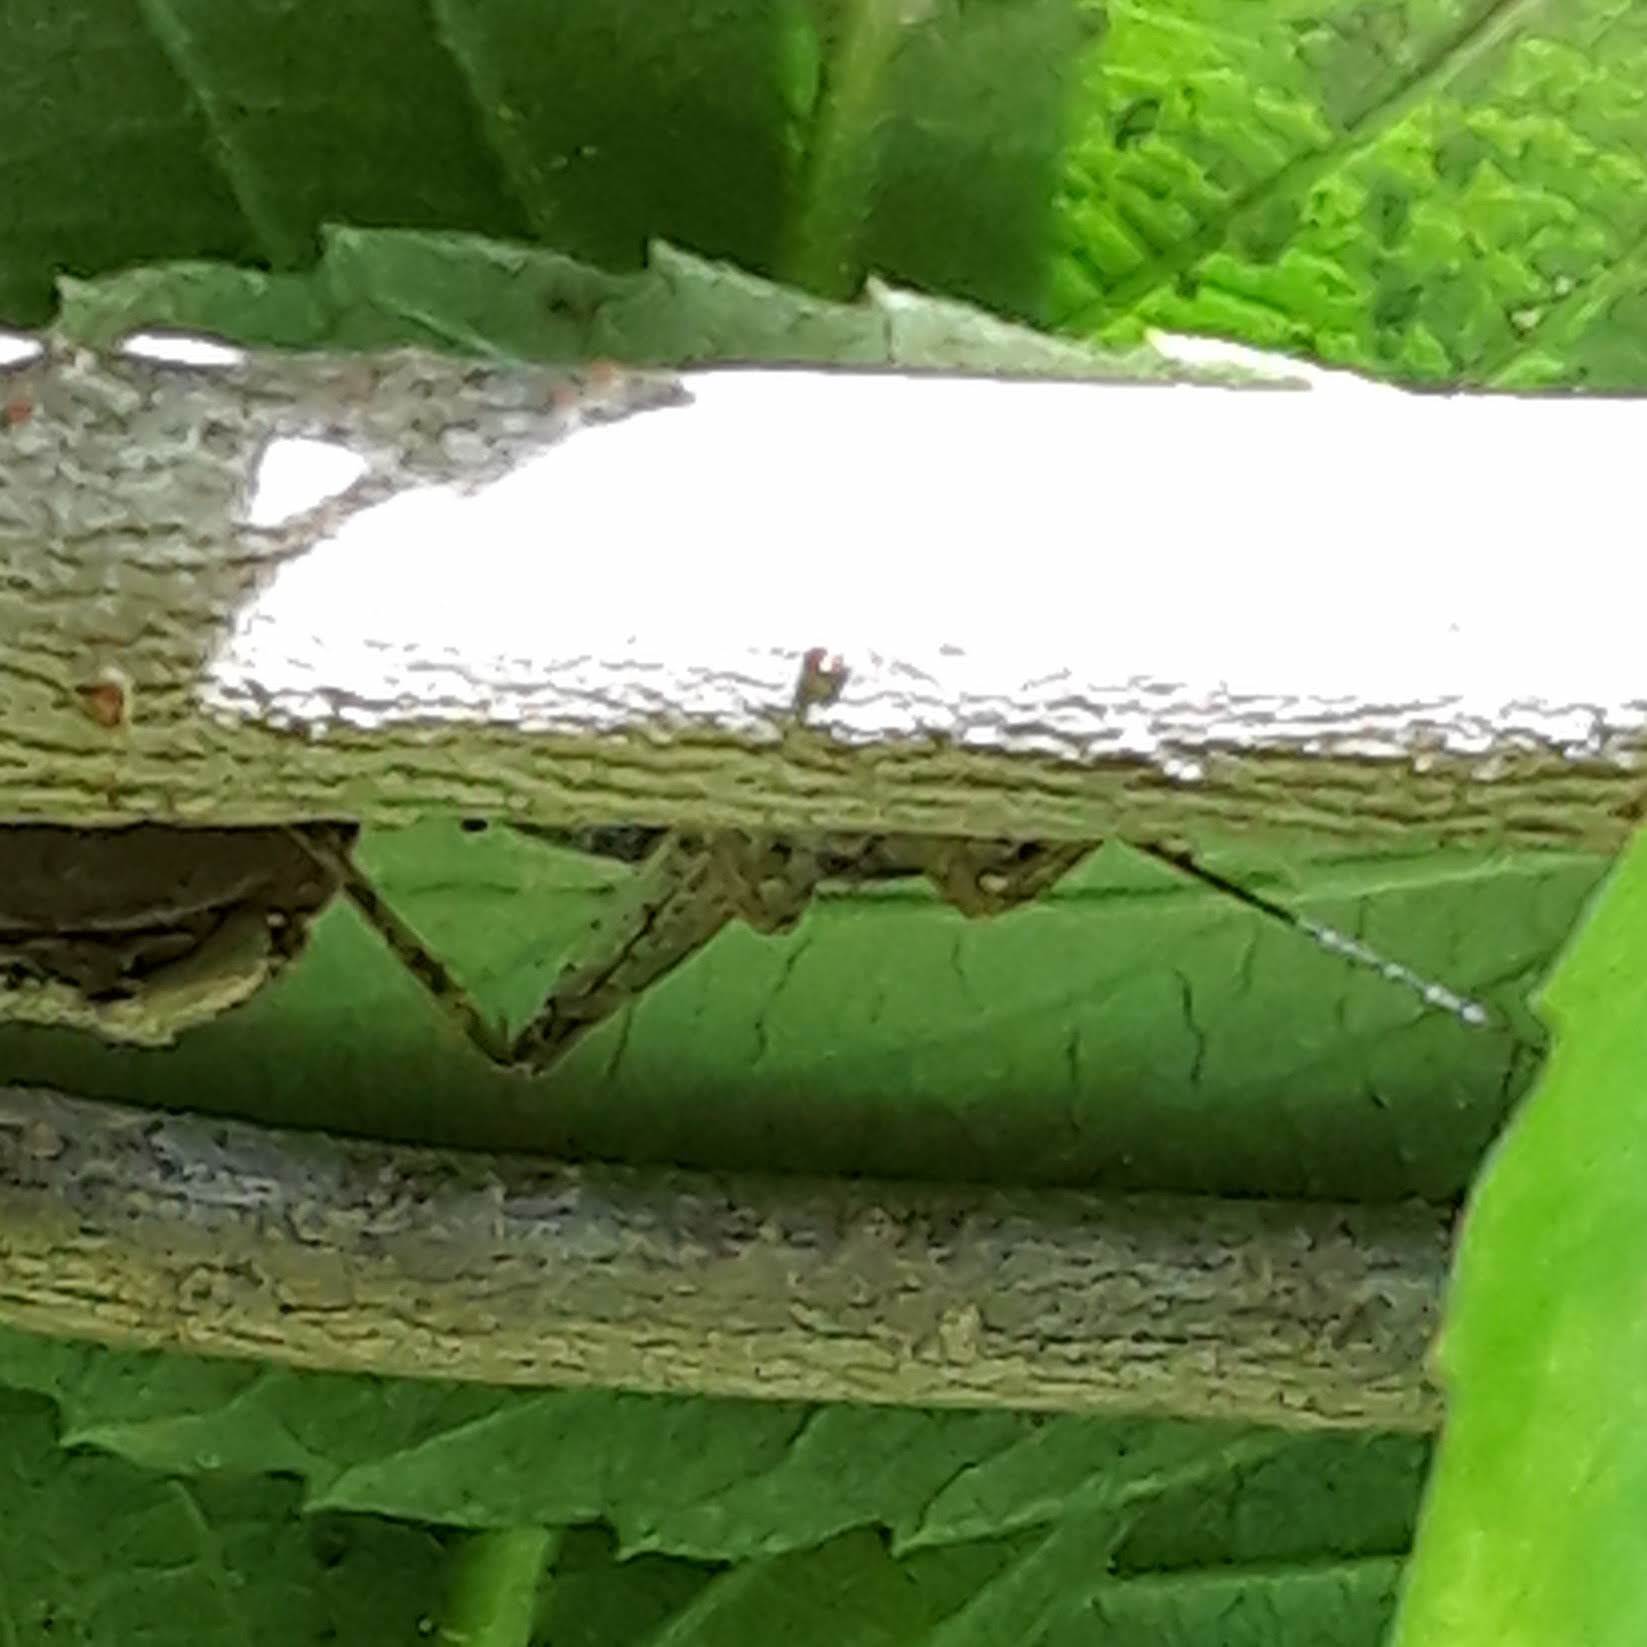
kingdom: Animalia
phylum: Arthropoda
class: Insecta
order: Orthoptera
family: Gryllidae
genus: Hapithus
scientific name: Hapithus saltator
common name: Jumping bush cricket
